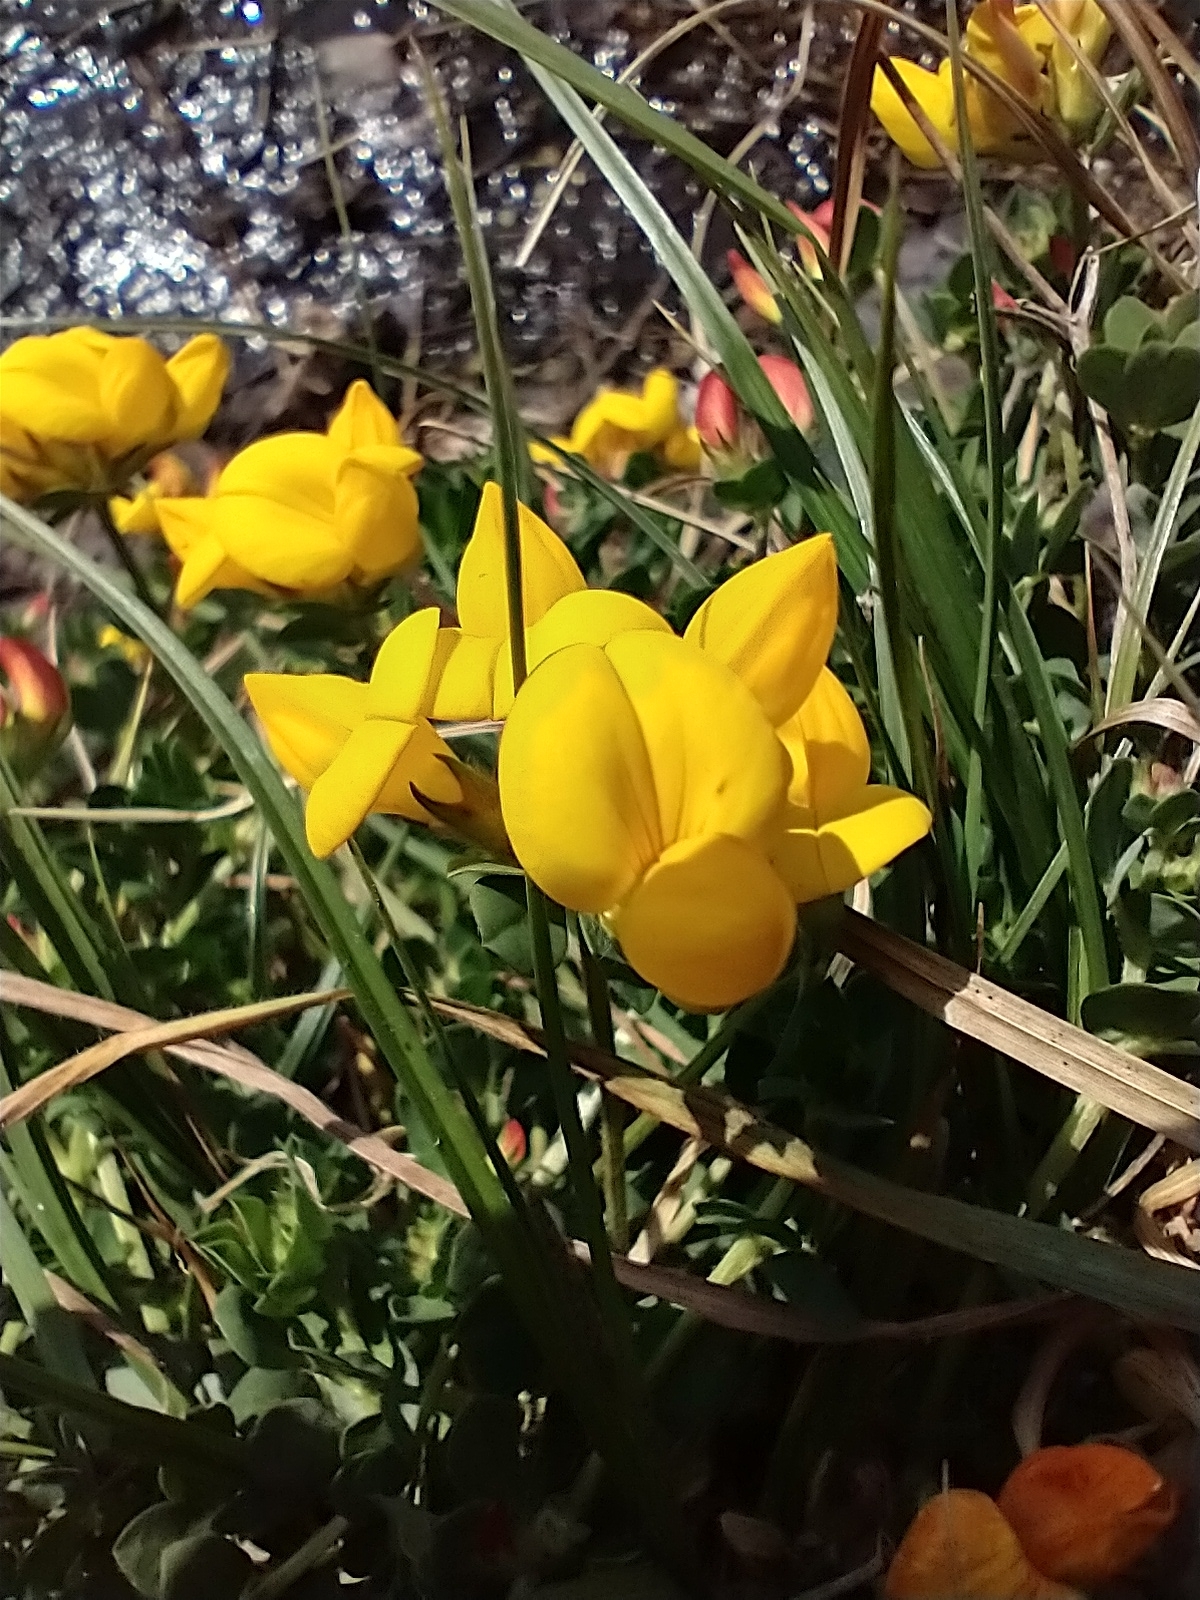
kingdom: Plantae
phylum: Tracheophyta
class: Magnoliopsida
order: Fabales
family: Fabaceae
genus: Lotus
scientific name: Lotus corniculatus
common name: Common bird's-foot-trefoil
